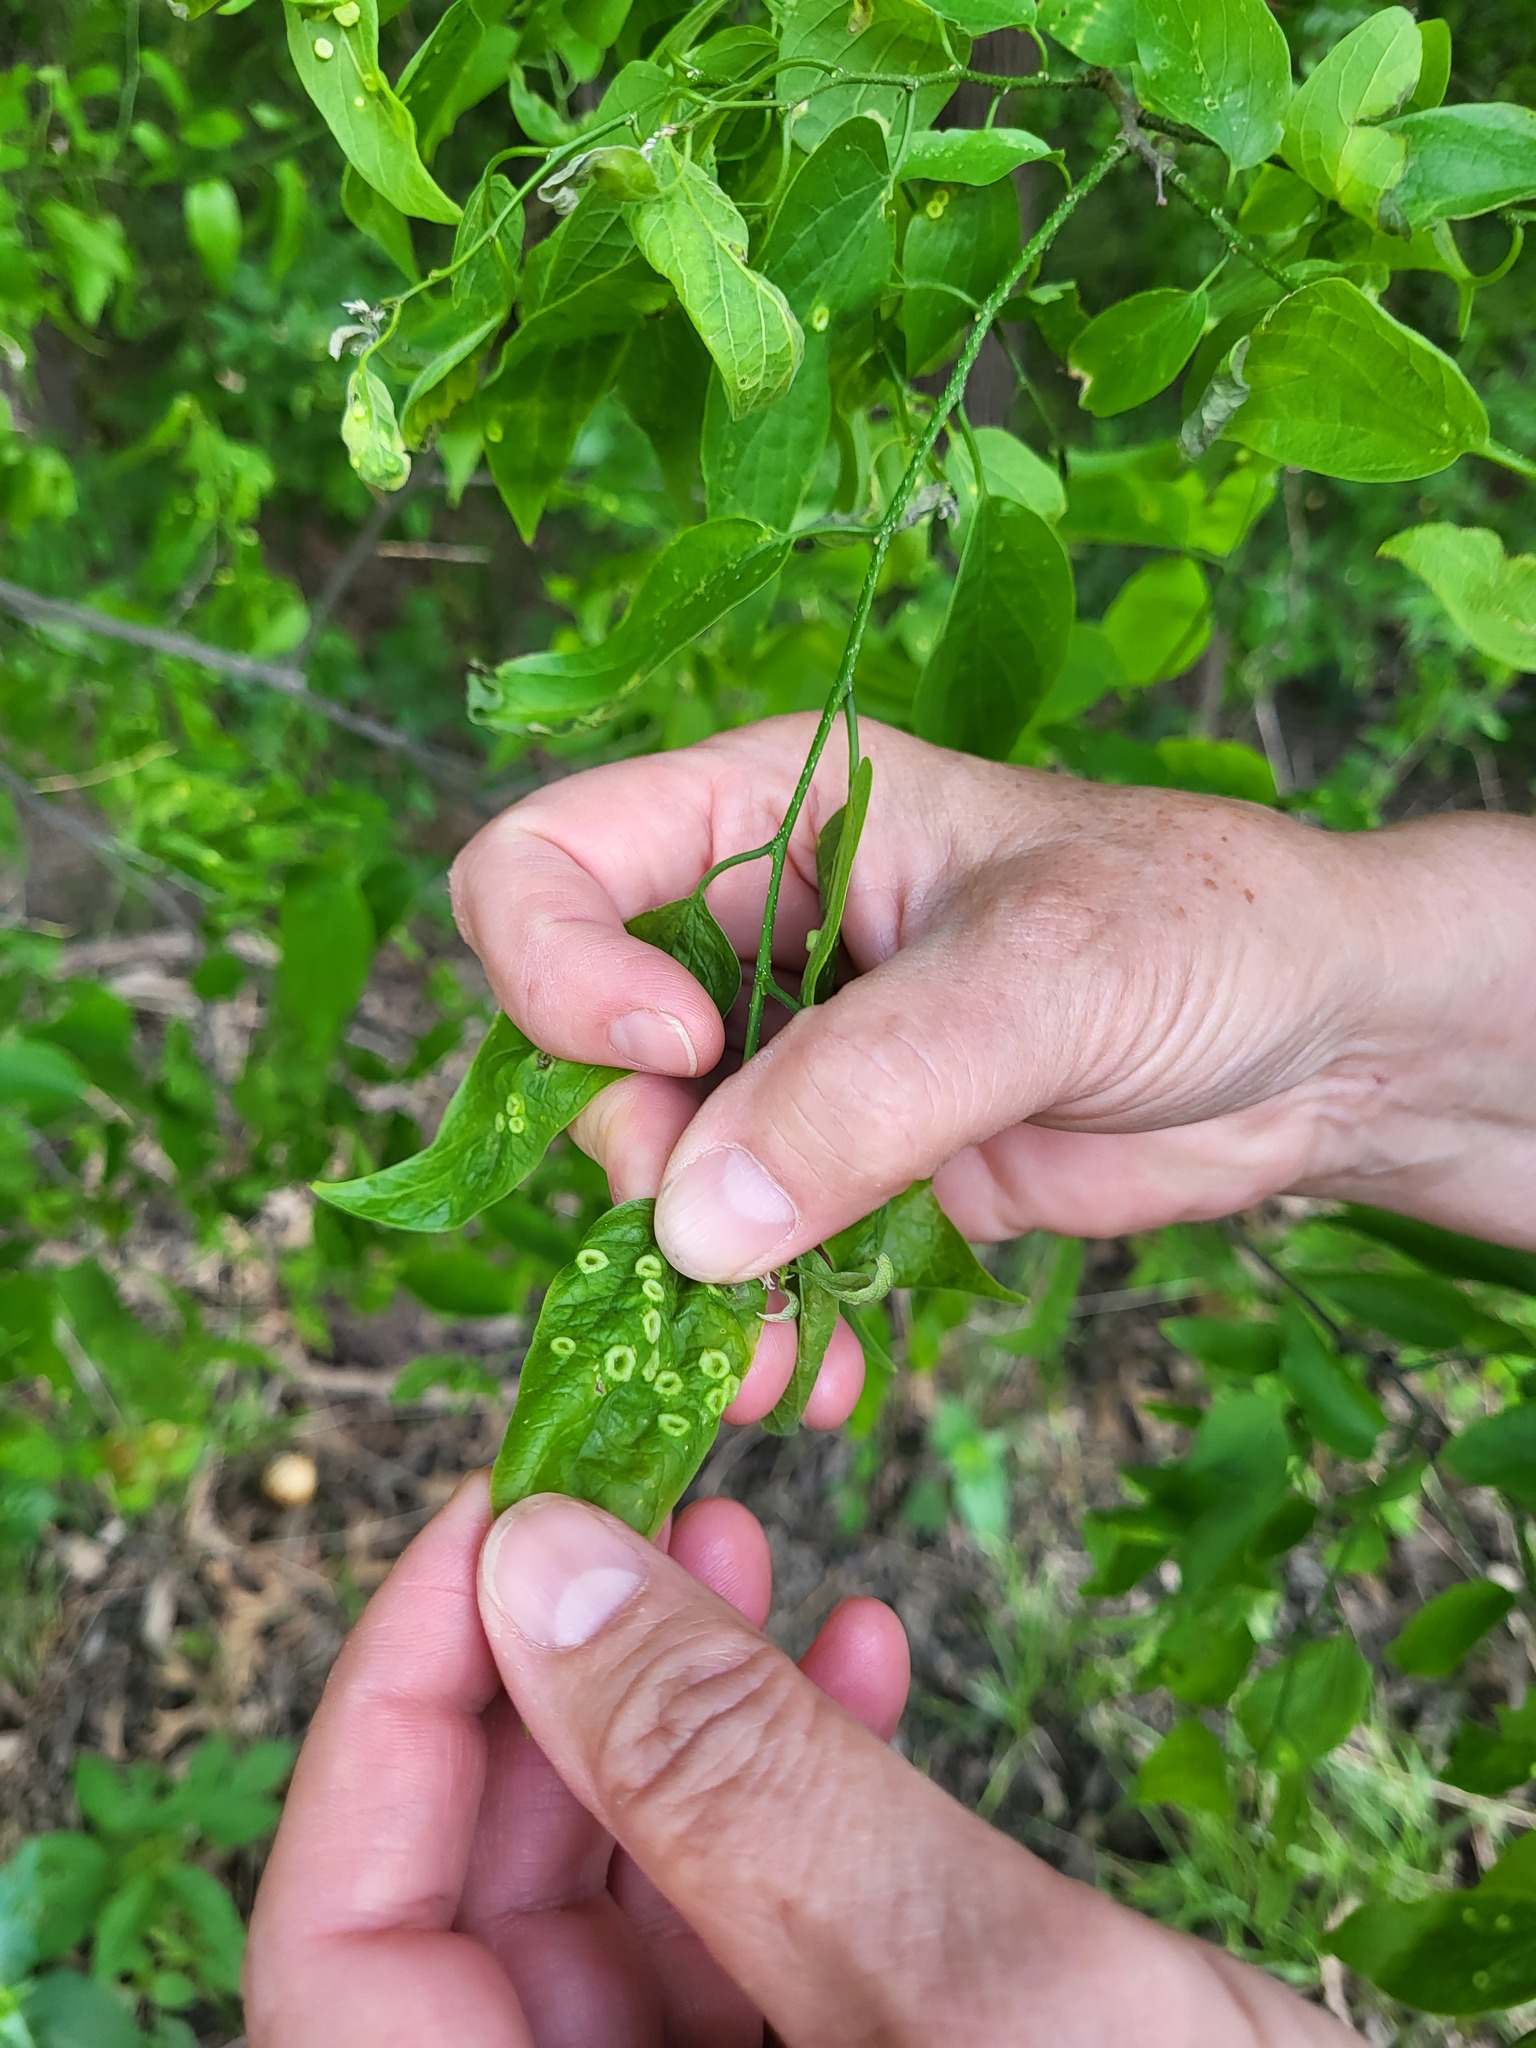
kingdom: Animalia
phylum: Arthropoda
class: Insecta
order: Hemiptera
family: Aphalaridae
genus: Pachypsylla
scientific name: Pachypsylla celtidismamma
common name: Hackberry nipplegall psyllid
